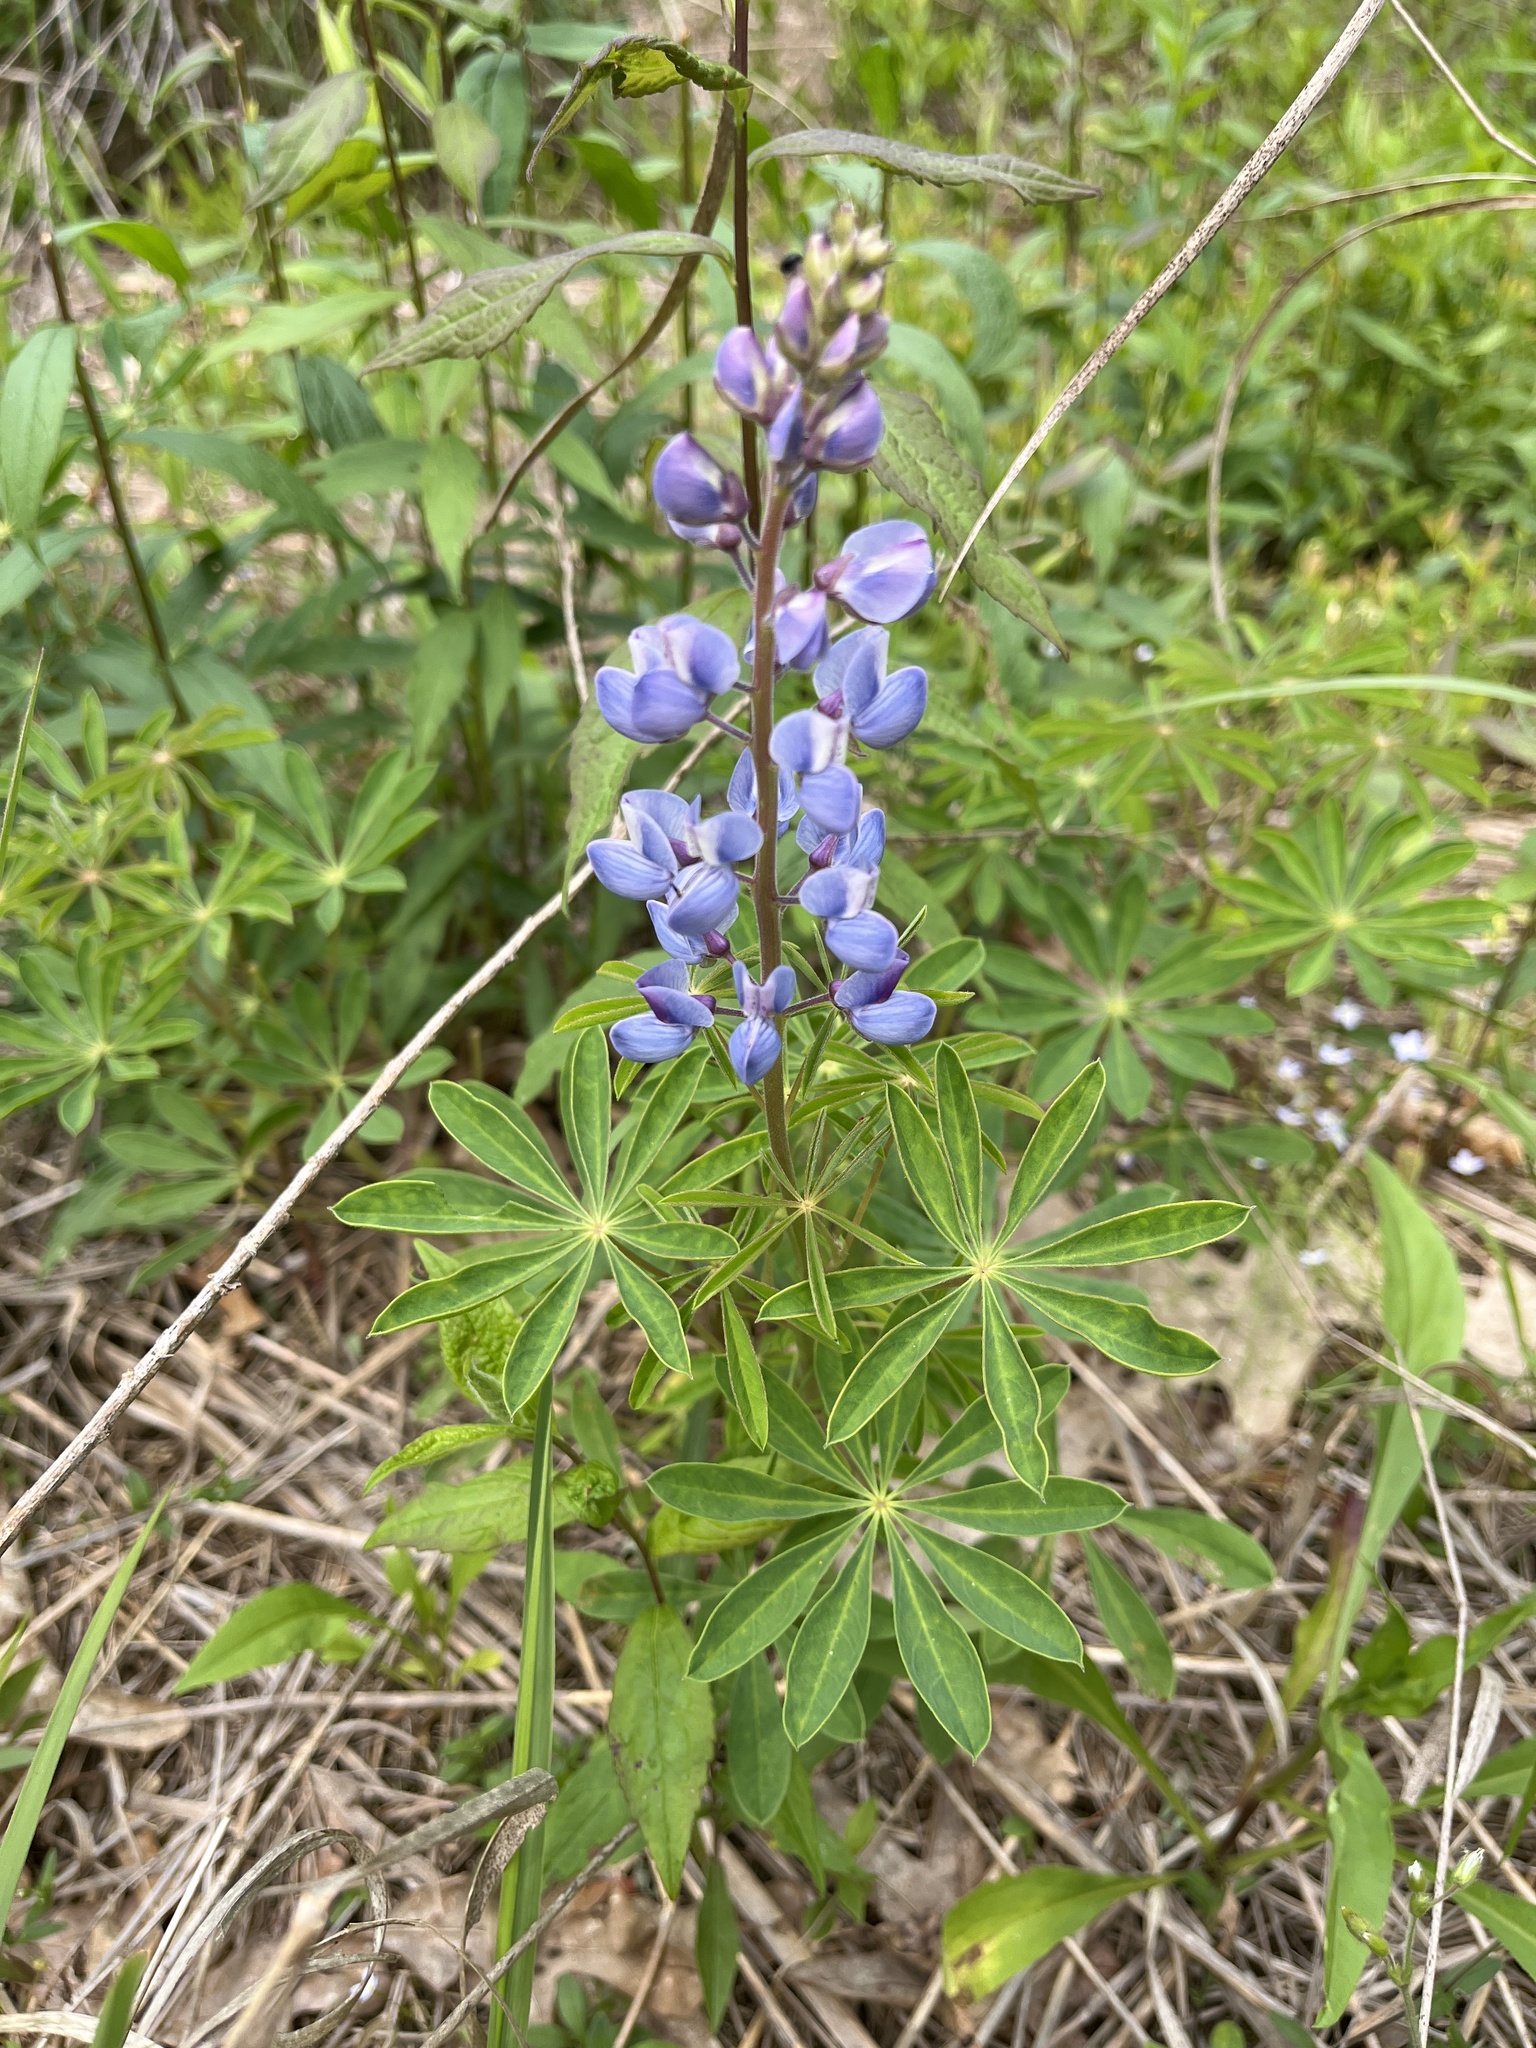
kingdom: Plantae
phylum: Tracheophyta
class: Magnoliopsida
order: Fabales
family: Fabaceae
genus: Lupinus
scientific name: Lupinus perennis
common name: Sundial lupine
